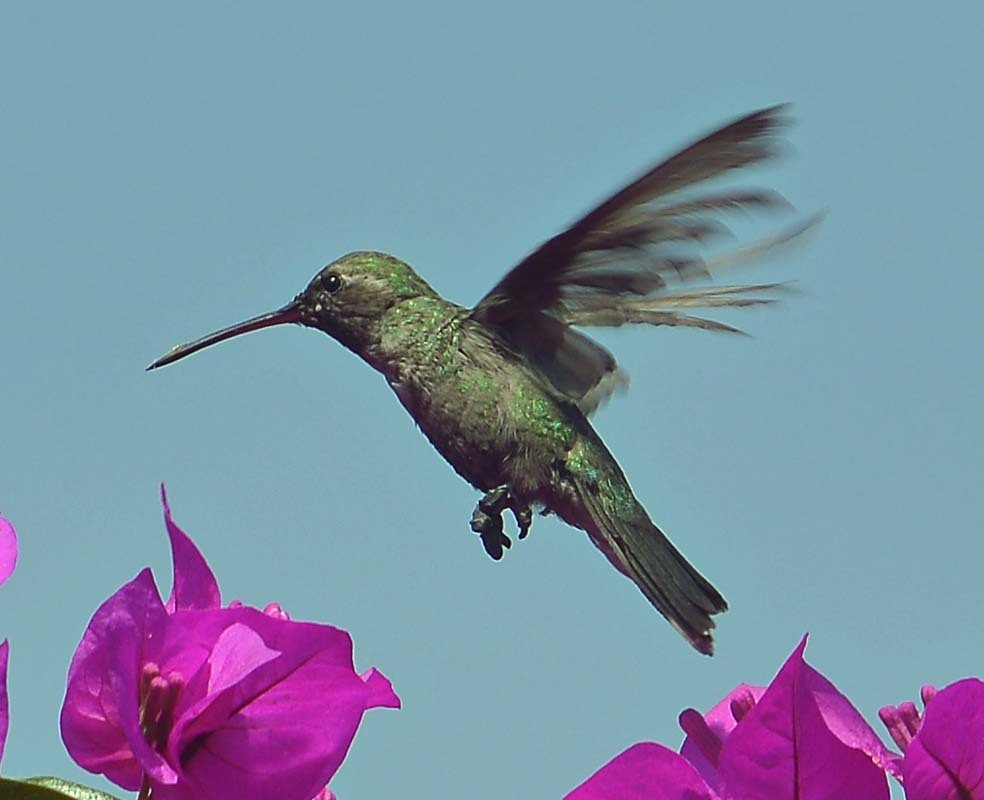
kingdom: Animalia
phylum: Chordata
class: Aves
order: Apodiformes
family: Trochilidae
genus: Cynanthus
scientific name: Cynanthus latirostris
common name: Broad-billed hummingbird
